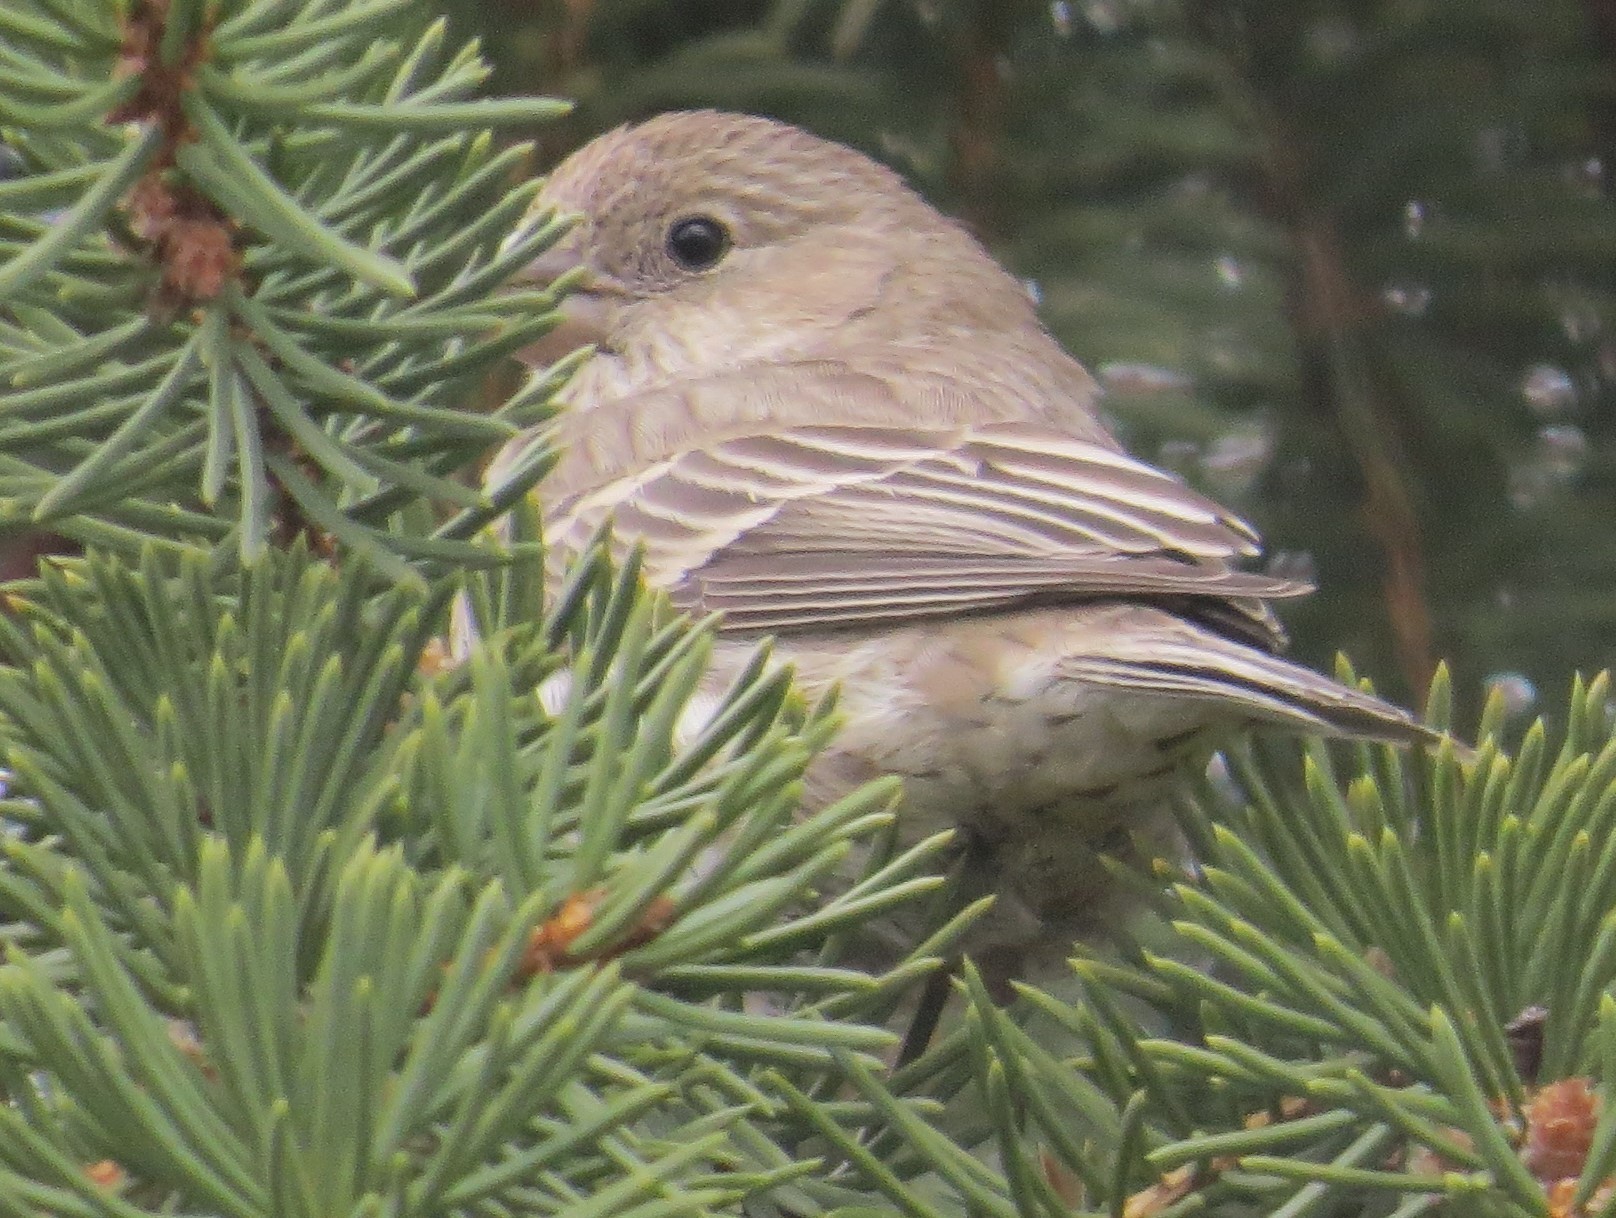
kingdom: Animalia
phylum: Chordata
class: Aves
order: Passeriformes
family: Fringillidae
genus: Haemorhous
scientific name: Haemorhous mexicanus
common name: House finch
